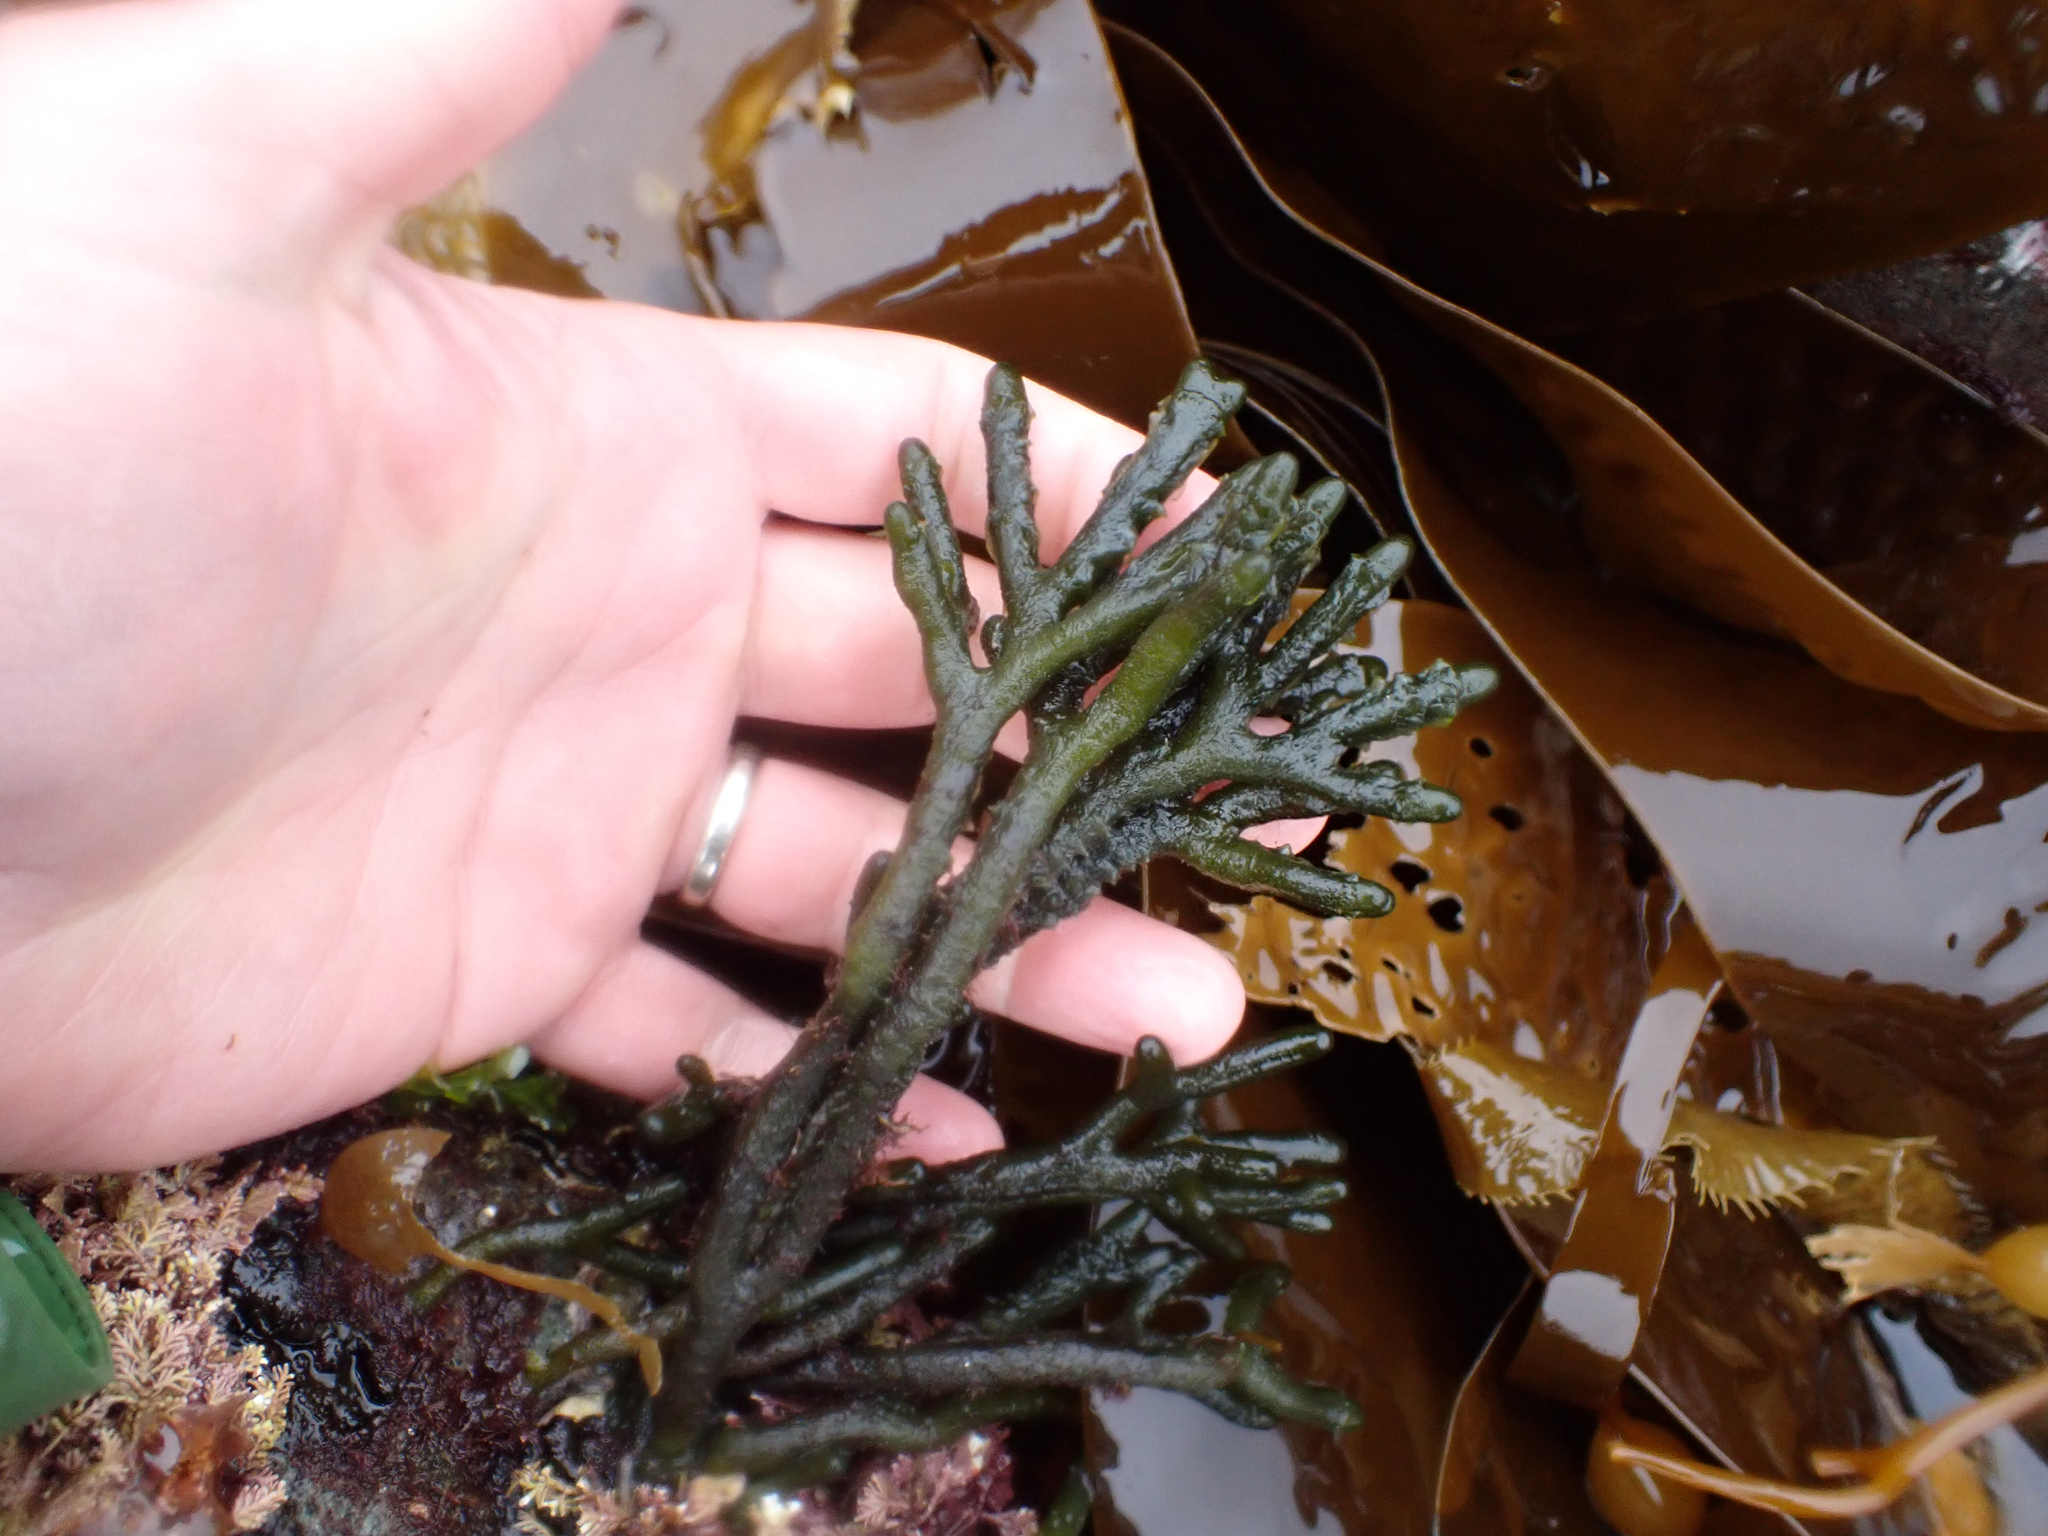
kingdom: Plantae
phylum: Chlorophyta
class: Ulvophyceae
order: Bryopsidales
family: Codiaceae
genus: Codium
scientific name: Codium fragile
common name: Dead man's fingers
